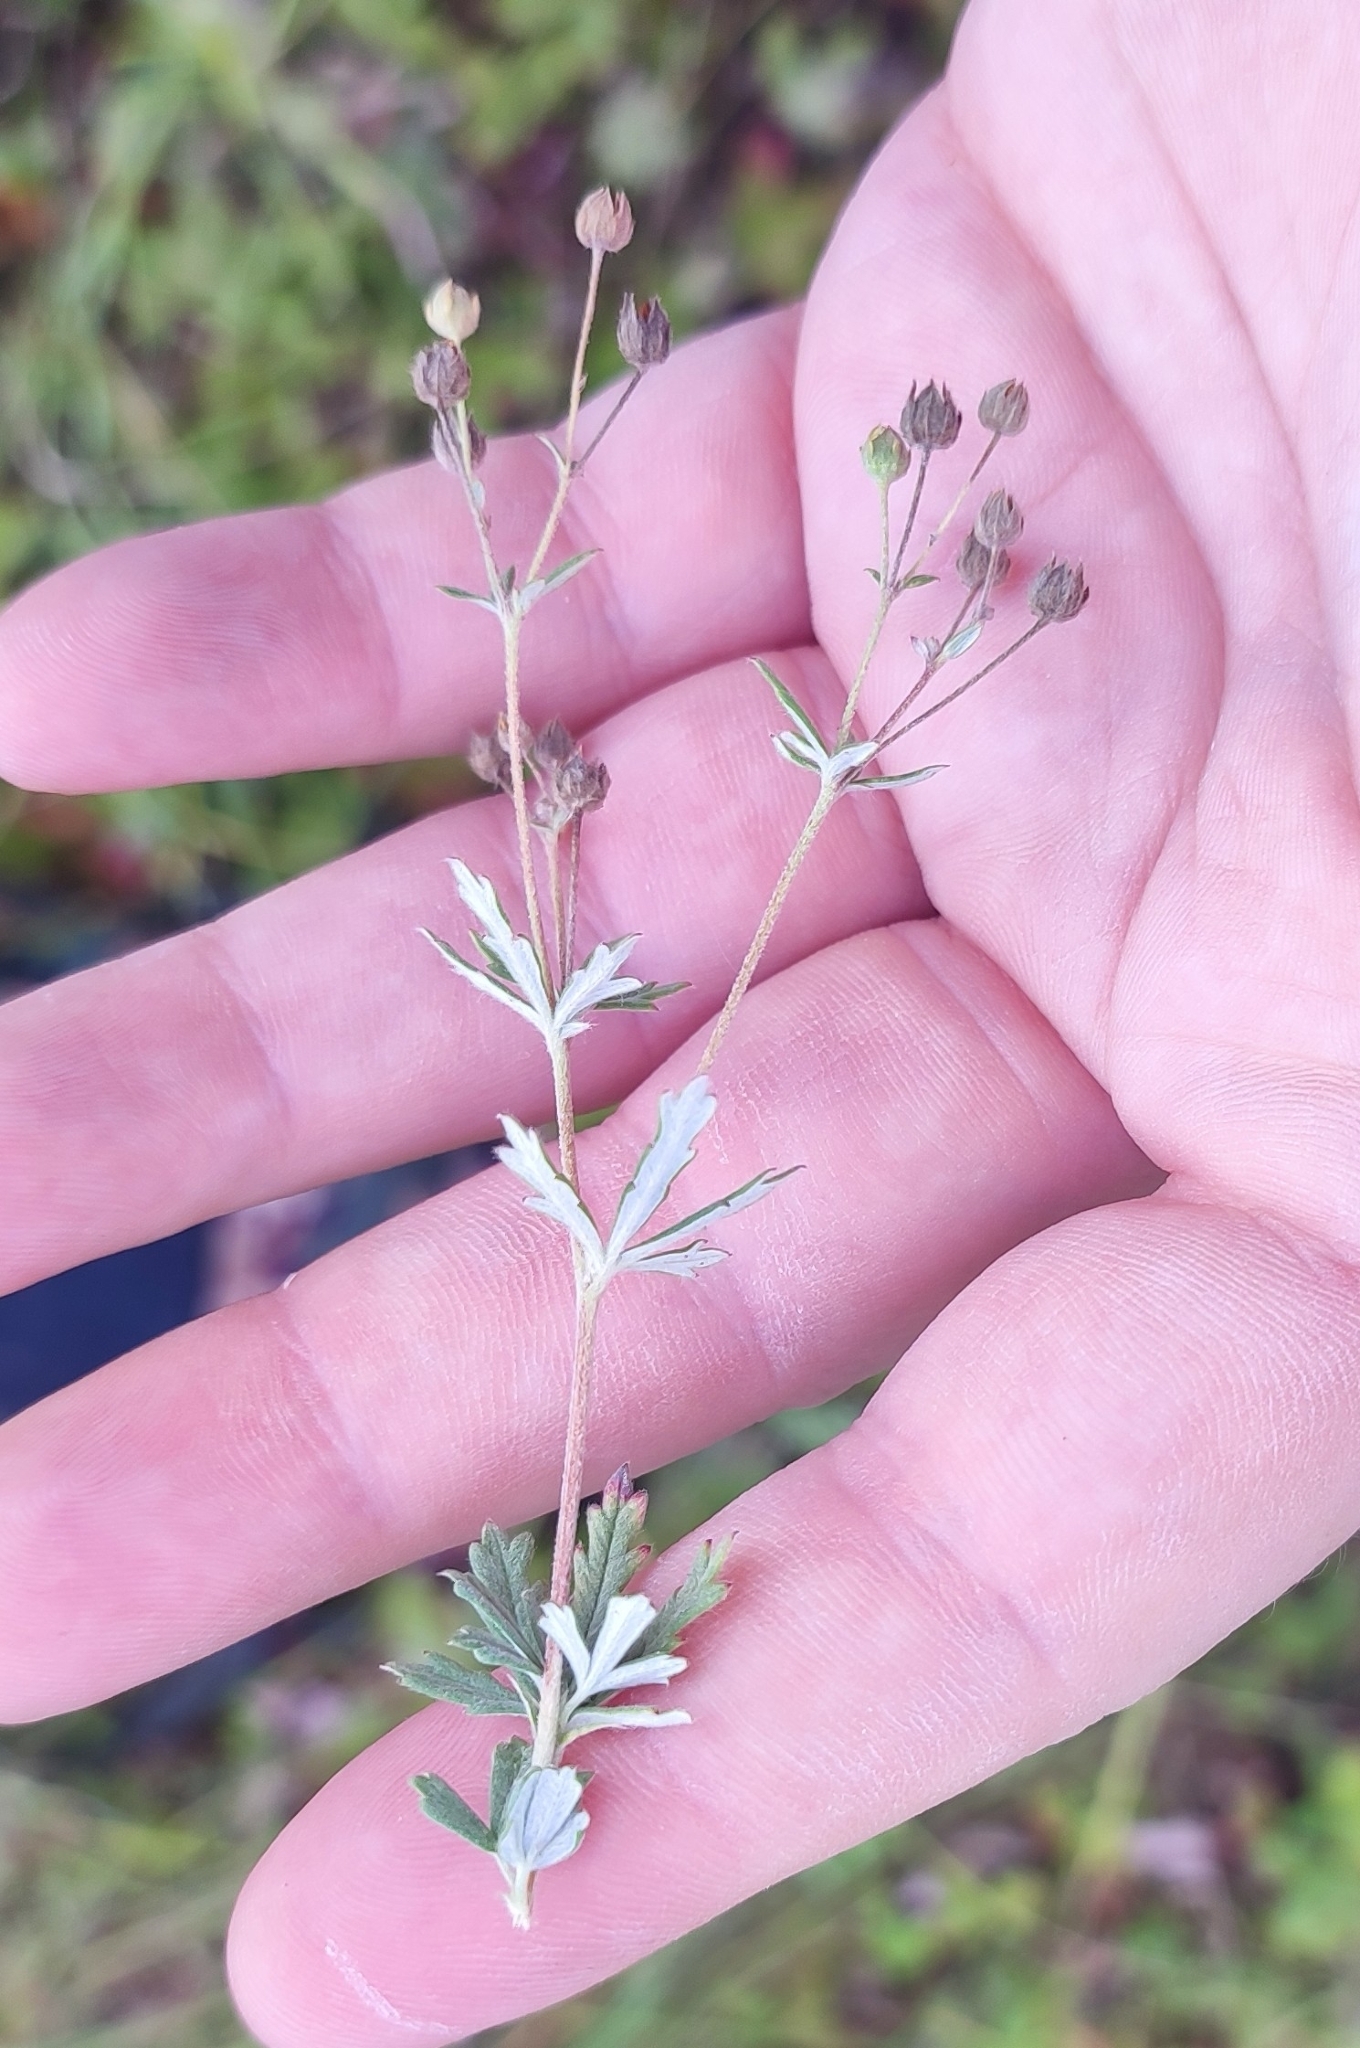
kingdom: Plantae
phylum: Tracheophyta
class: Magnoliopsida
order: Rosales
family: Rosaceae
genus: Potentilla
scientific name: Potentilla argentea
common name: Hoary cinquefoil
